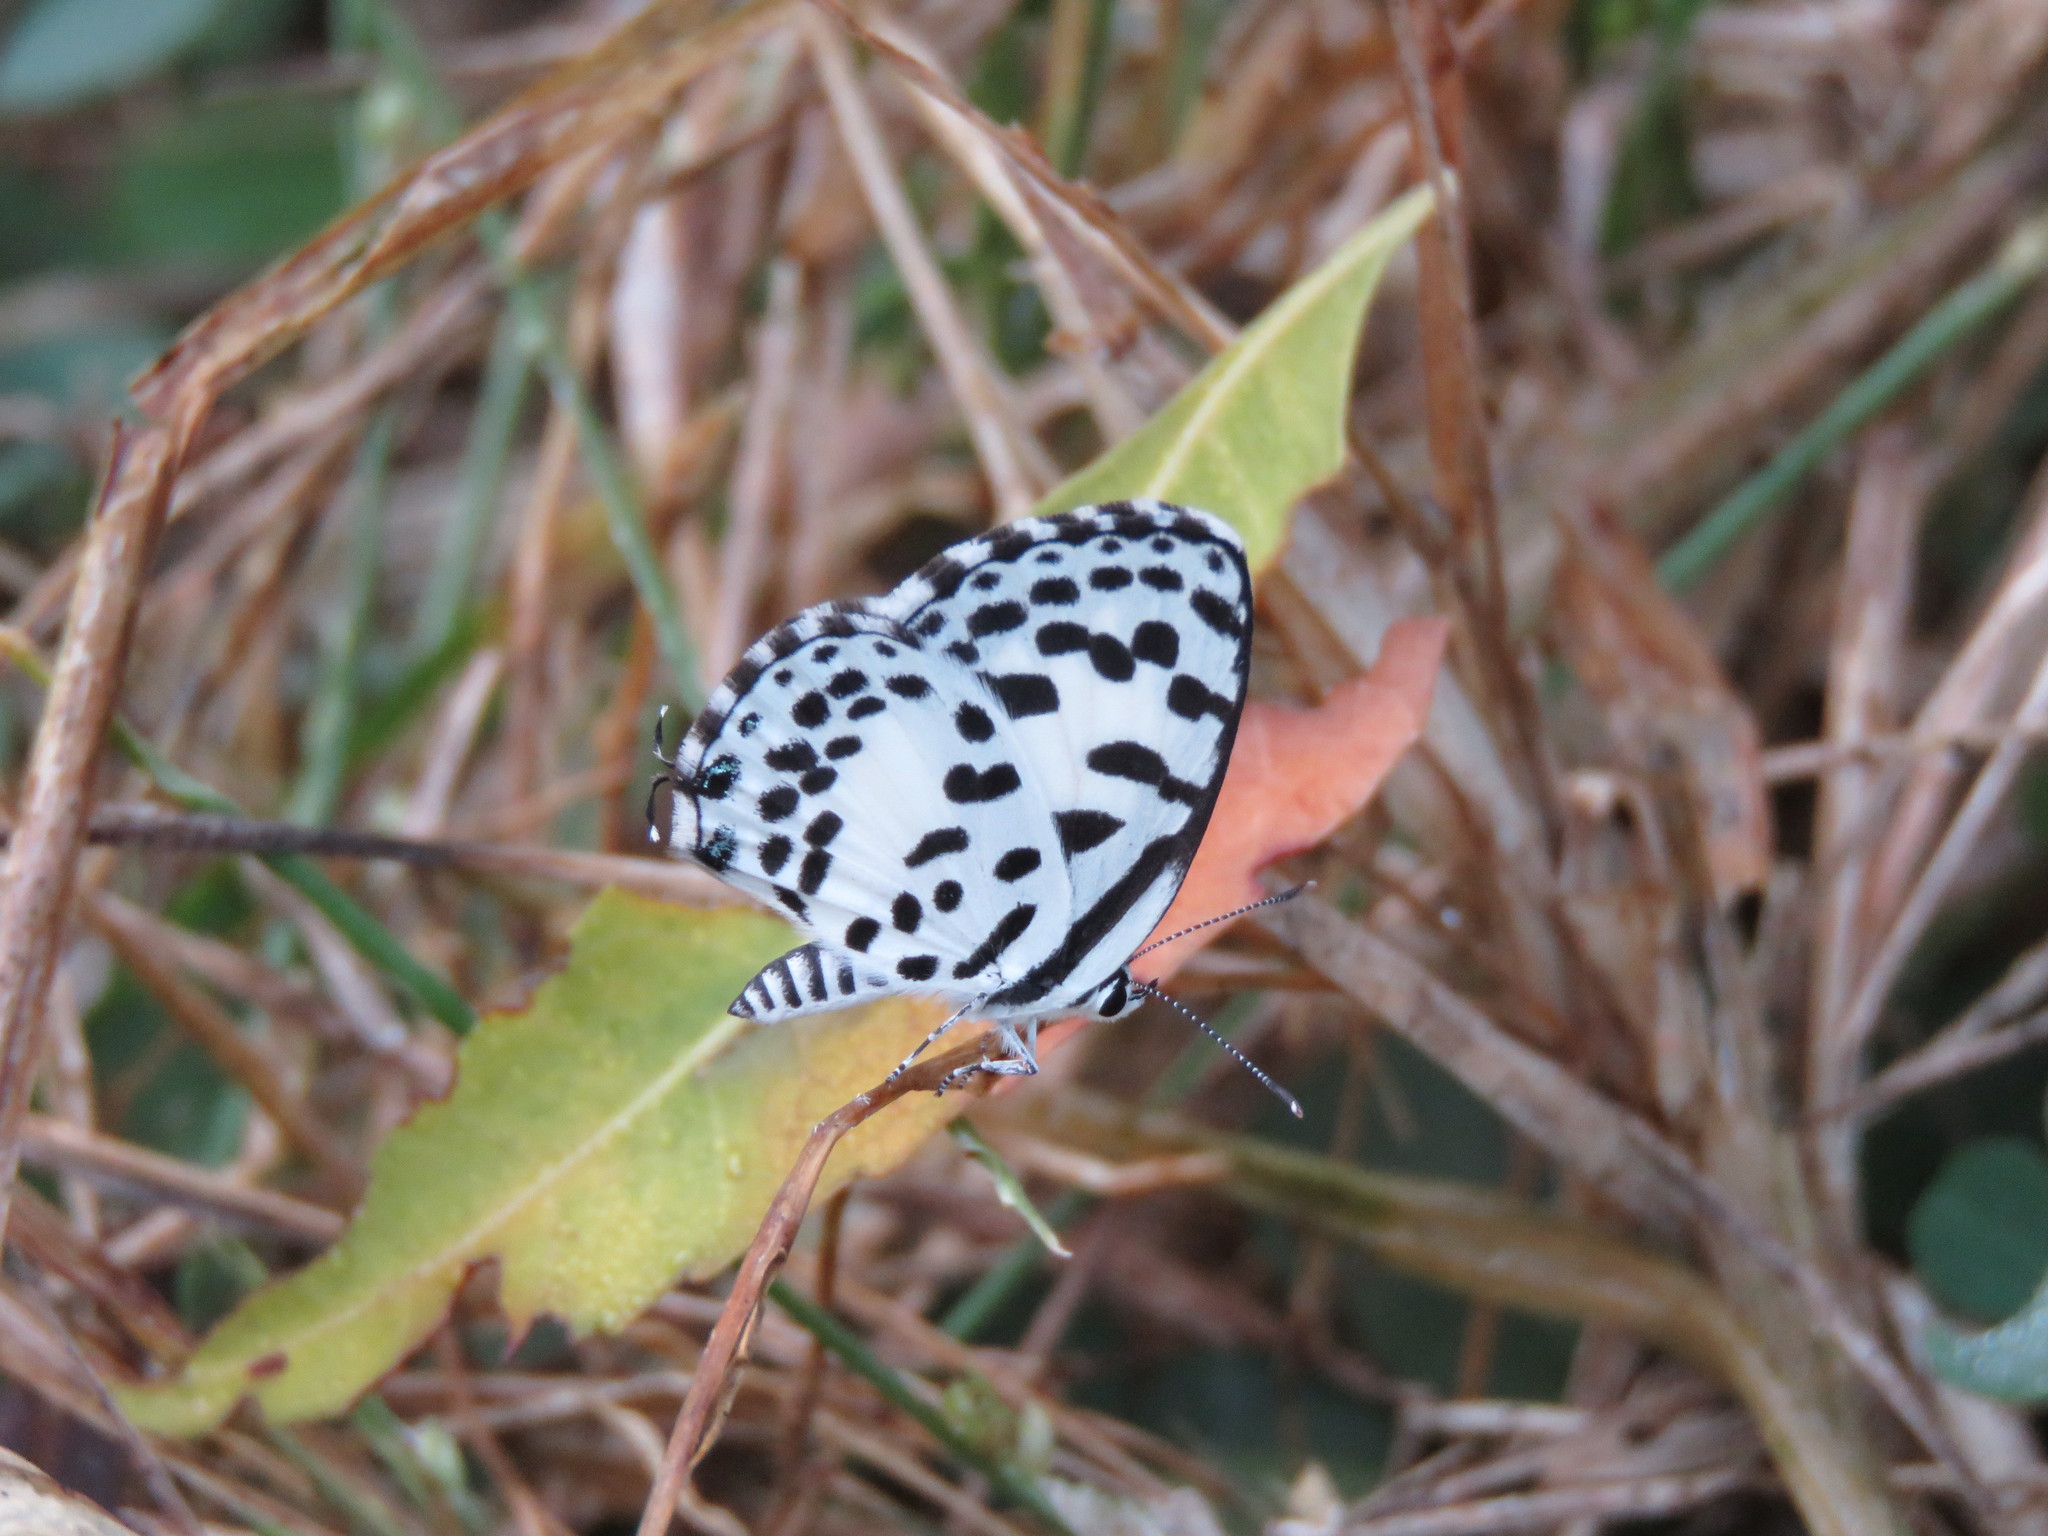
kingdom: Animalia
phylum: Arthropoda
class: Insecta
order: Lepidoptera
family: Lycaenidae
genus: Castalius
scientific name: Castalius rosimon
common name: Common pierrot
